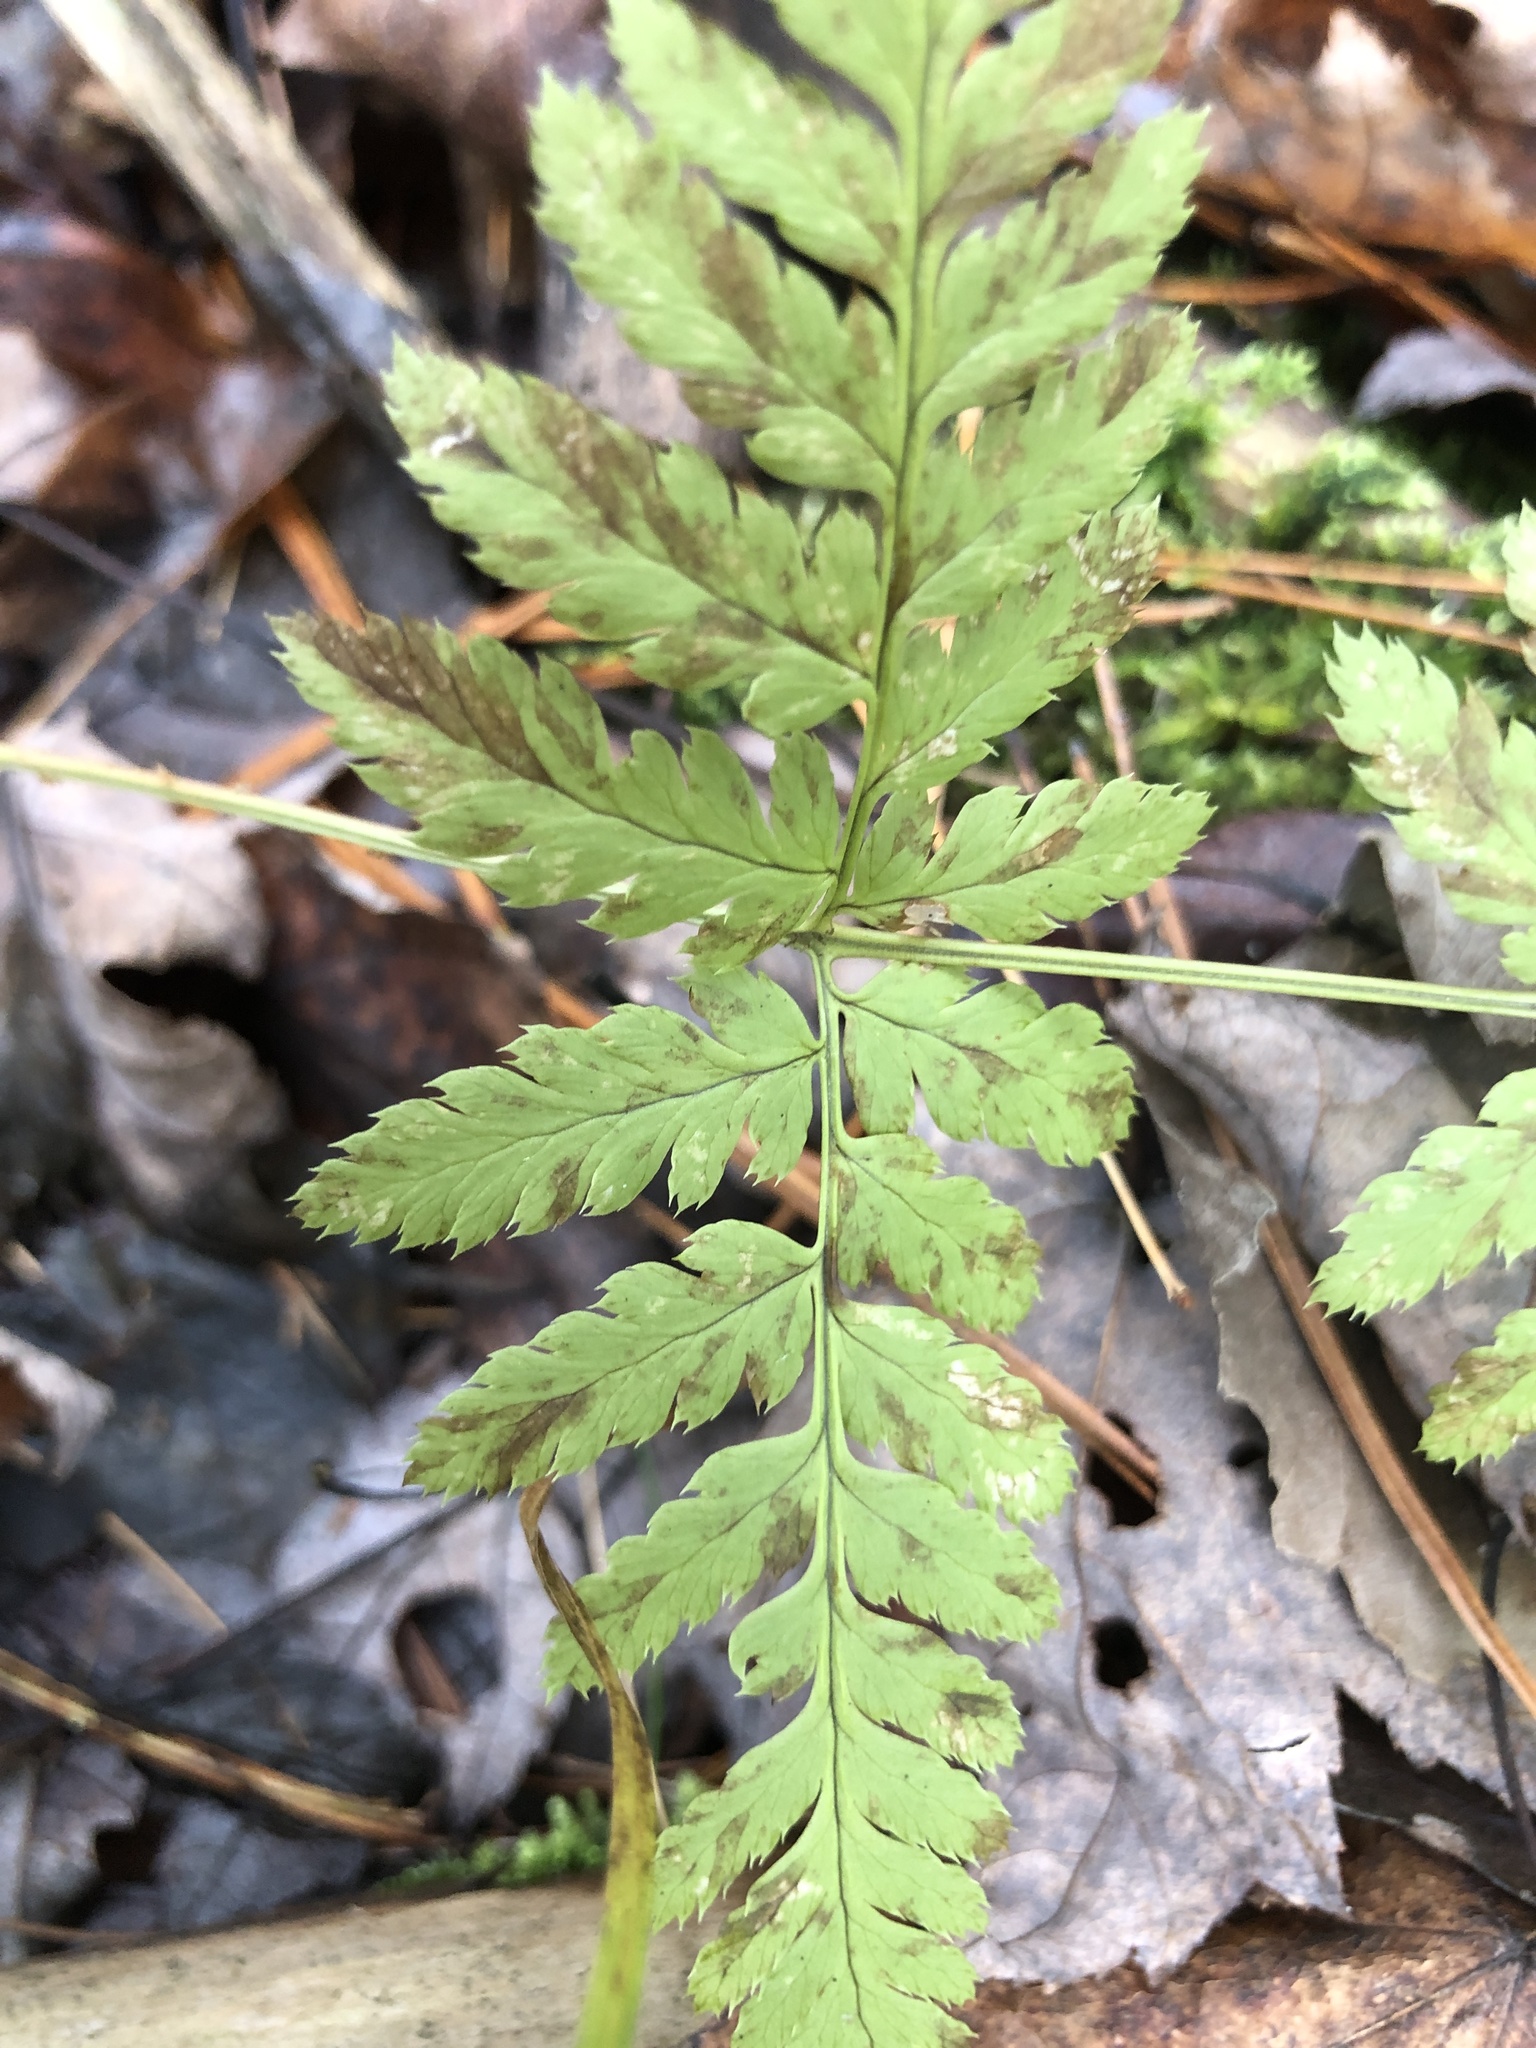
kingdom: Plantae
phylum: Tracheophyta
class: Polypodiopsida
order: Polypodiales
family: Dryopteridaceae
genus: Dryopteris
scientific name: Dryopteris carthusiana
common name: Narrow buckler-fern
